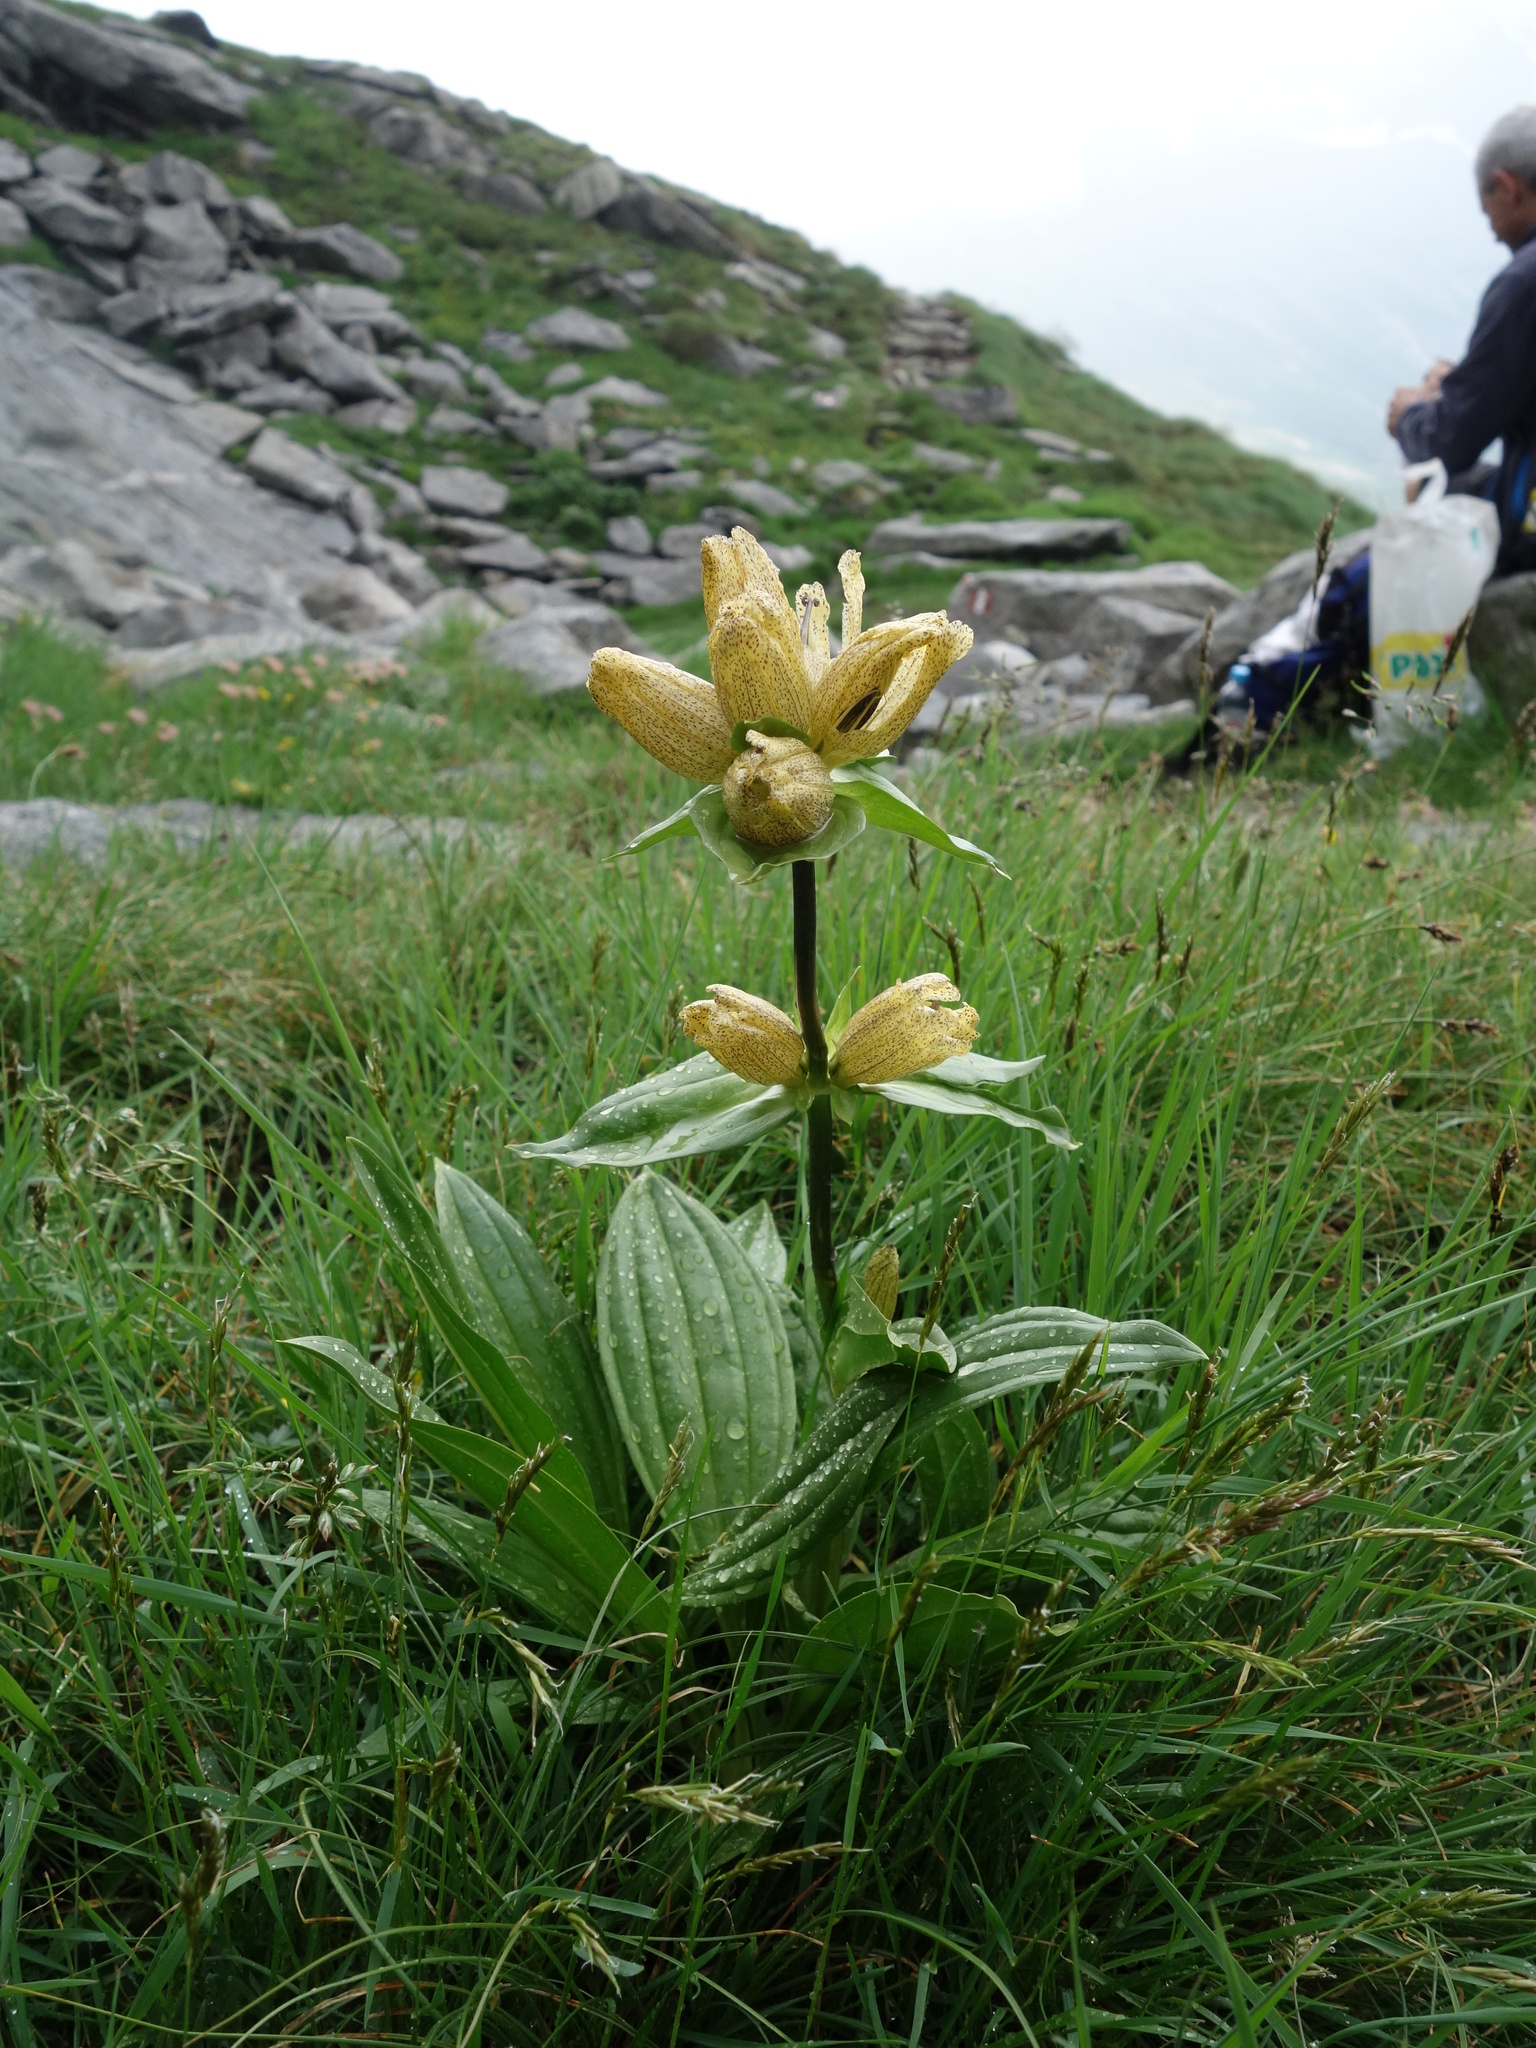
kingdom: Plantae
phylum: Tracheophyta
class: Magnoliopsida
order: Gentianales
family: Gentianaceae
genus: Gentiana
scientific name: Gentiana punctata
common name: Spotted gentian
